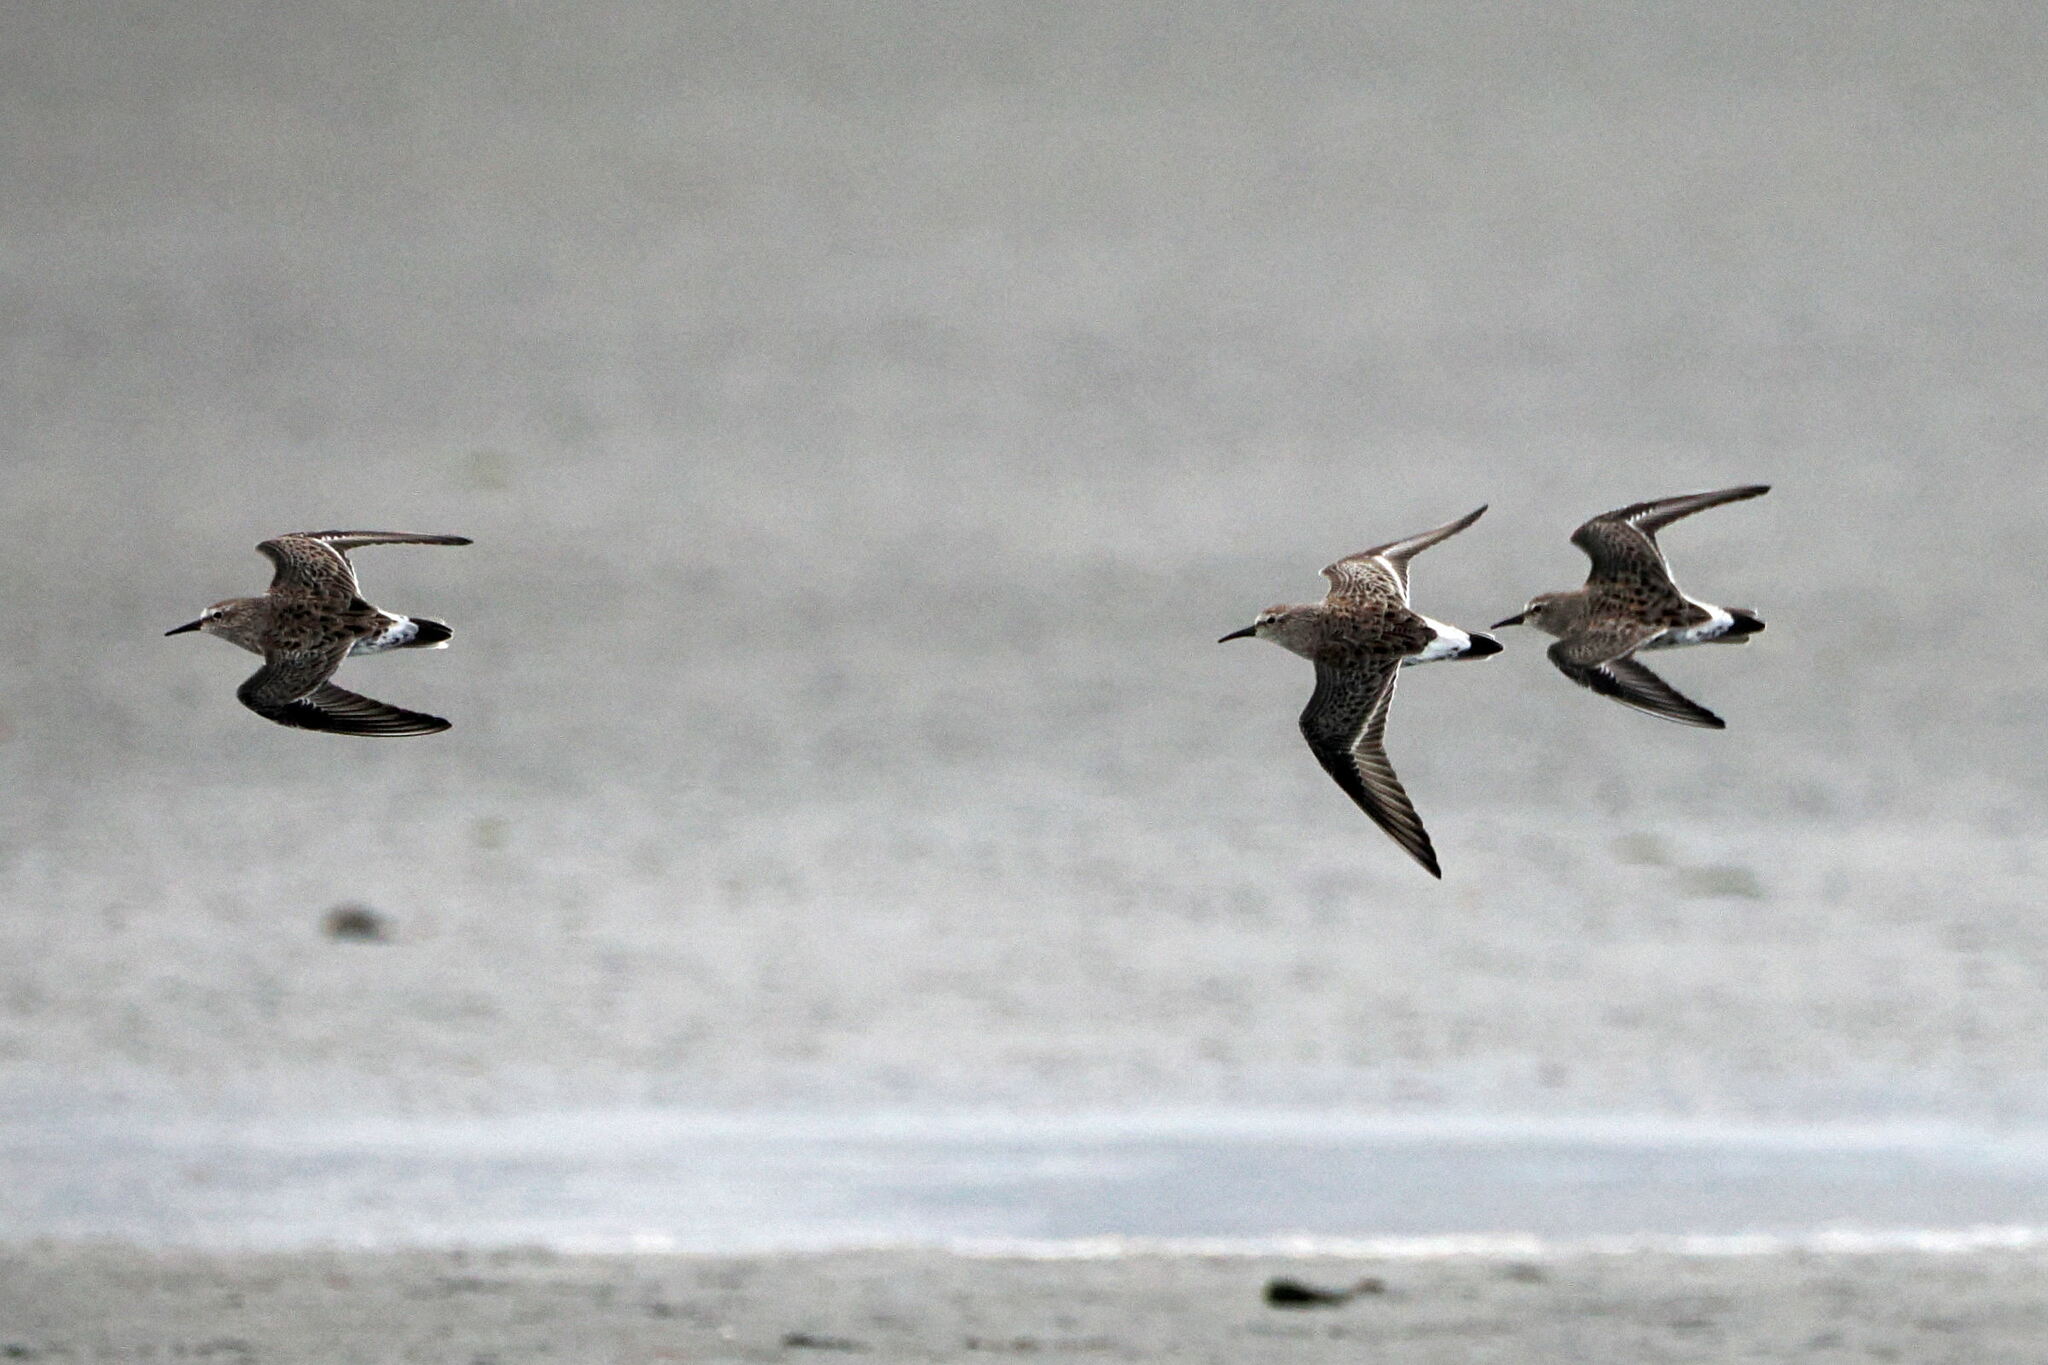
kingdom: Animalia
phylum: Chordata
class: Aves
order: Charadriiformes
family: Scolopacidae
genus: Calidris
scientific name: Calidris fuscicollis
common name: White-rumped sandpiper
